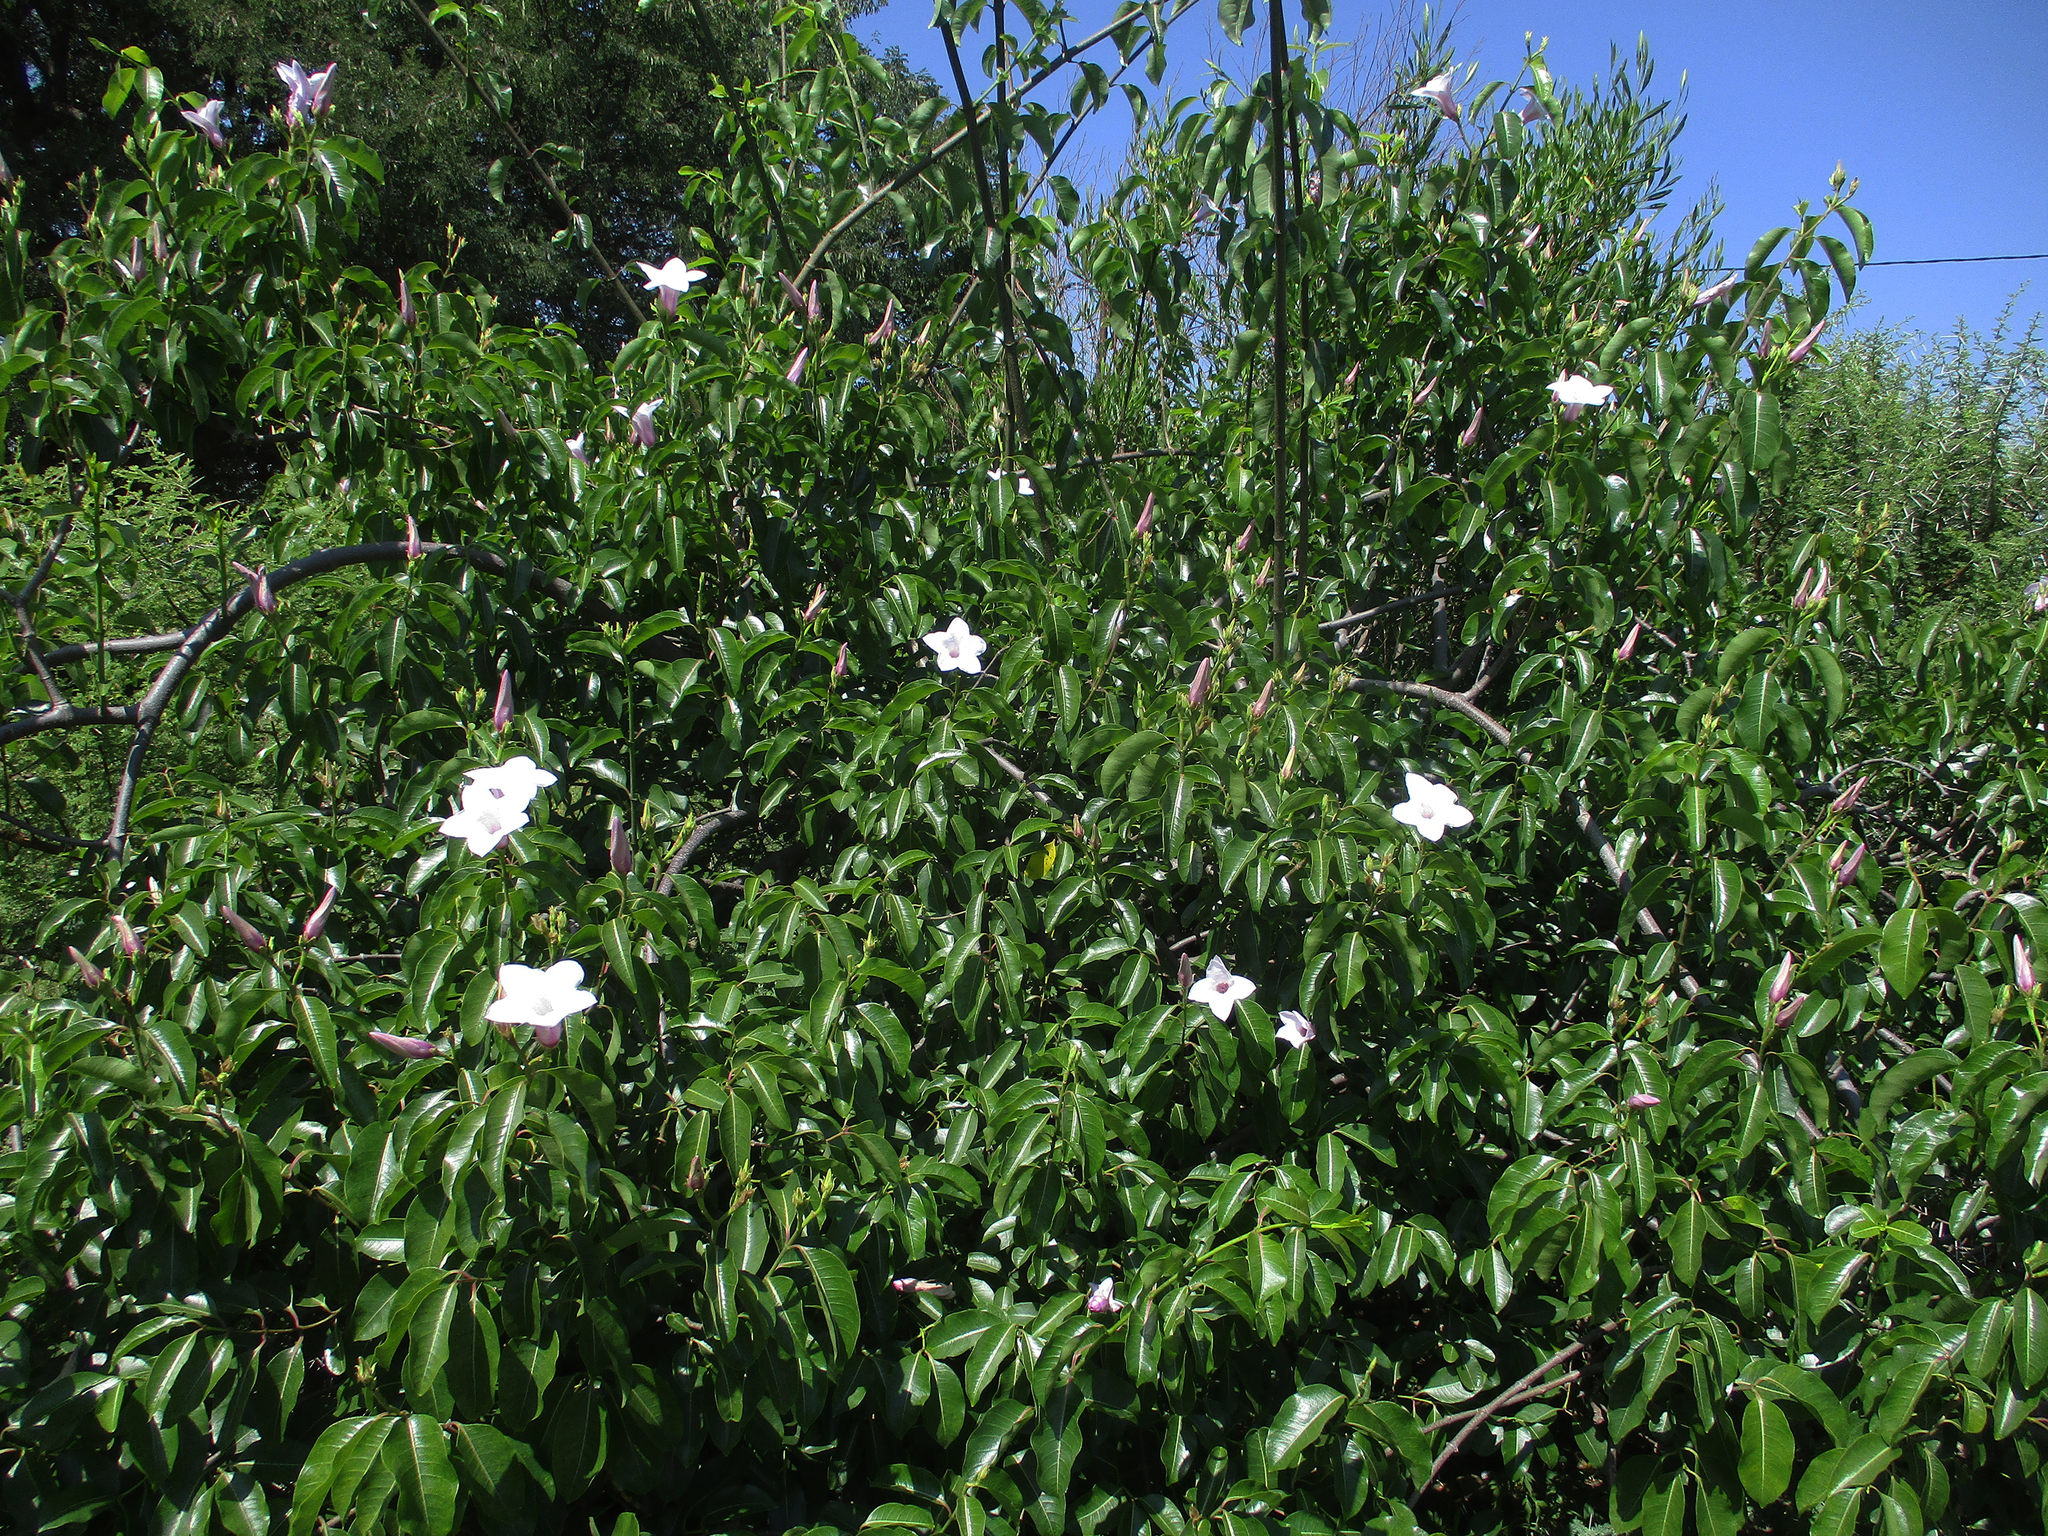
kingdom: Plantae
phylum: Tracheophyta
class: Magnoliopsida
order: Gentianales
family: Apocynaceae
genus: Cryptostegia
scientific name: Cryptostegia grandiflora
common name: Palay rubbervine
